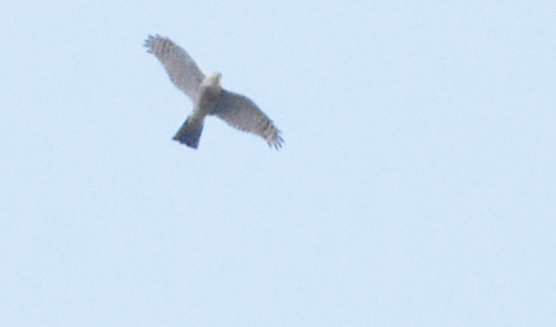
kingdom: Animalia
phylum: Chordata
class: Aves
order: Accipitriformes
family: Accipitridae
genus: Accipiter
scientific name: Accipiter nisus
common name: Eurasian sparrowhawk
